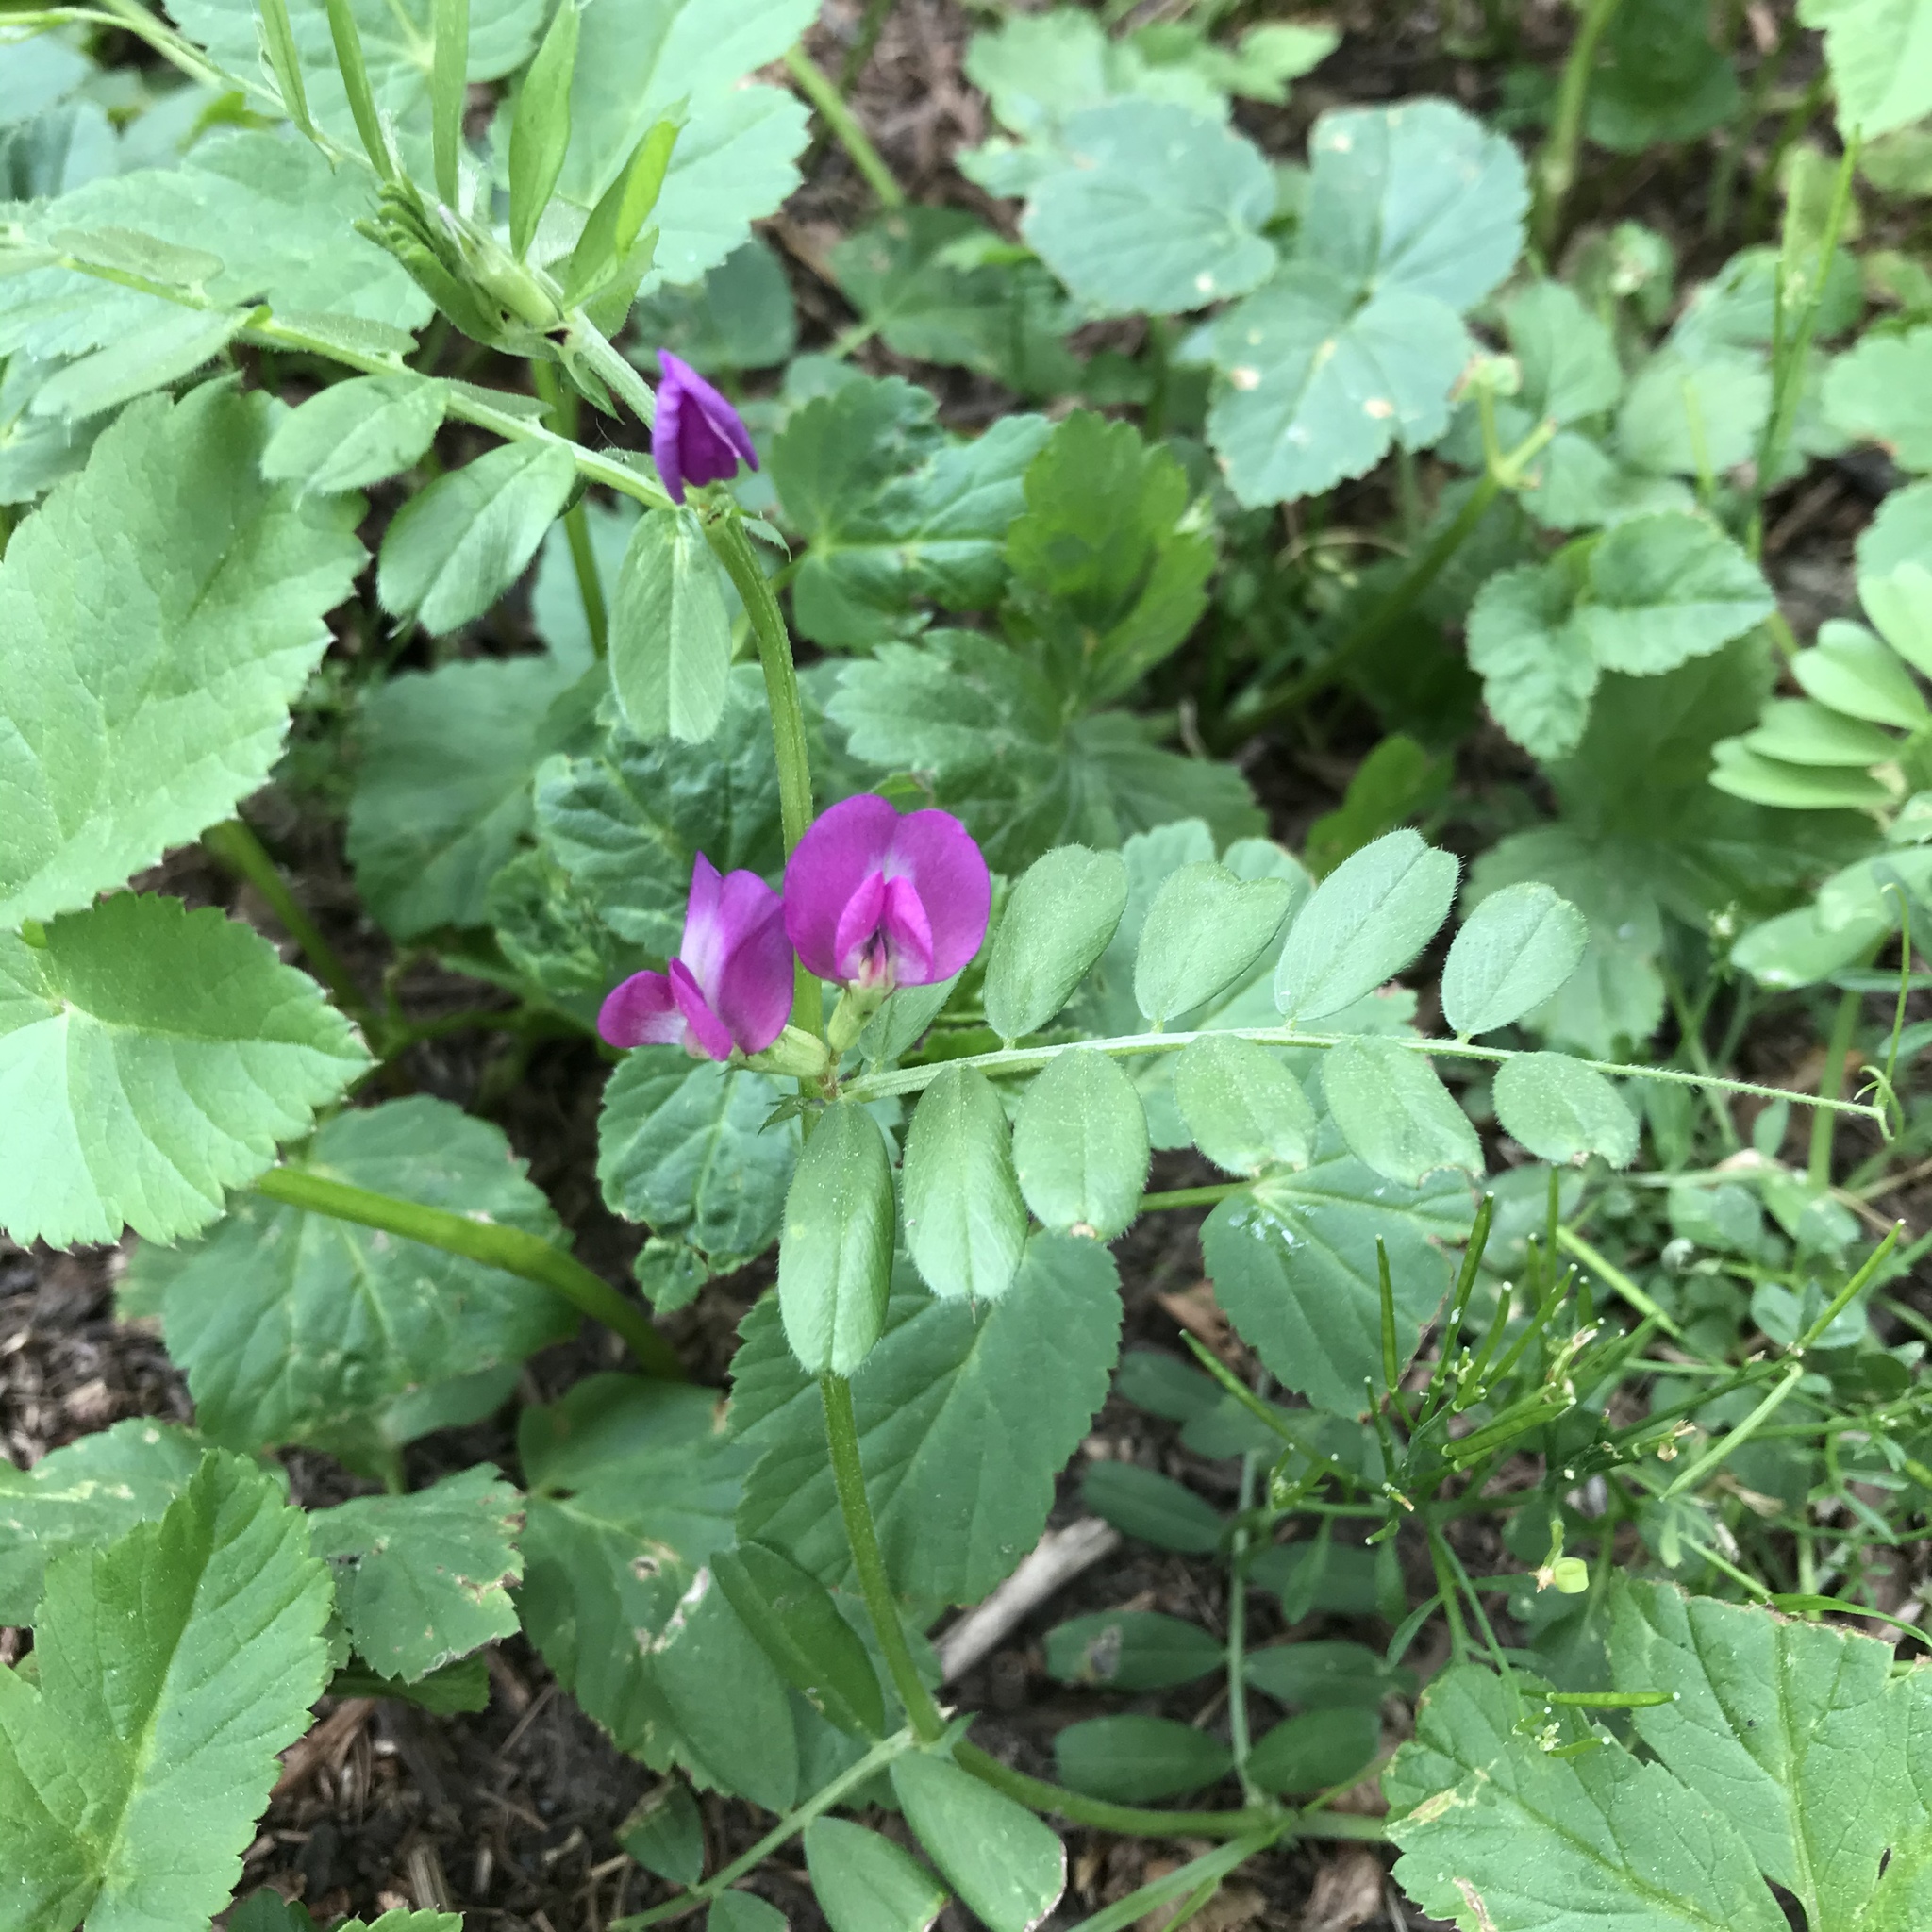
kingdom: Plantae
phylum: Tracheophyta
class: Magnoliopsida
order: Fabales
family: Fabaceae
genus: Vicia
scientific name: Vicia sativa
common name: Garden vetch
